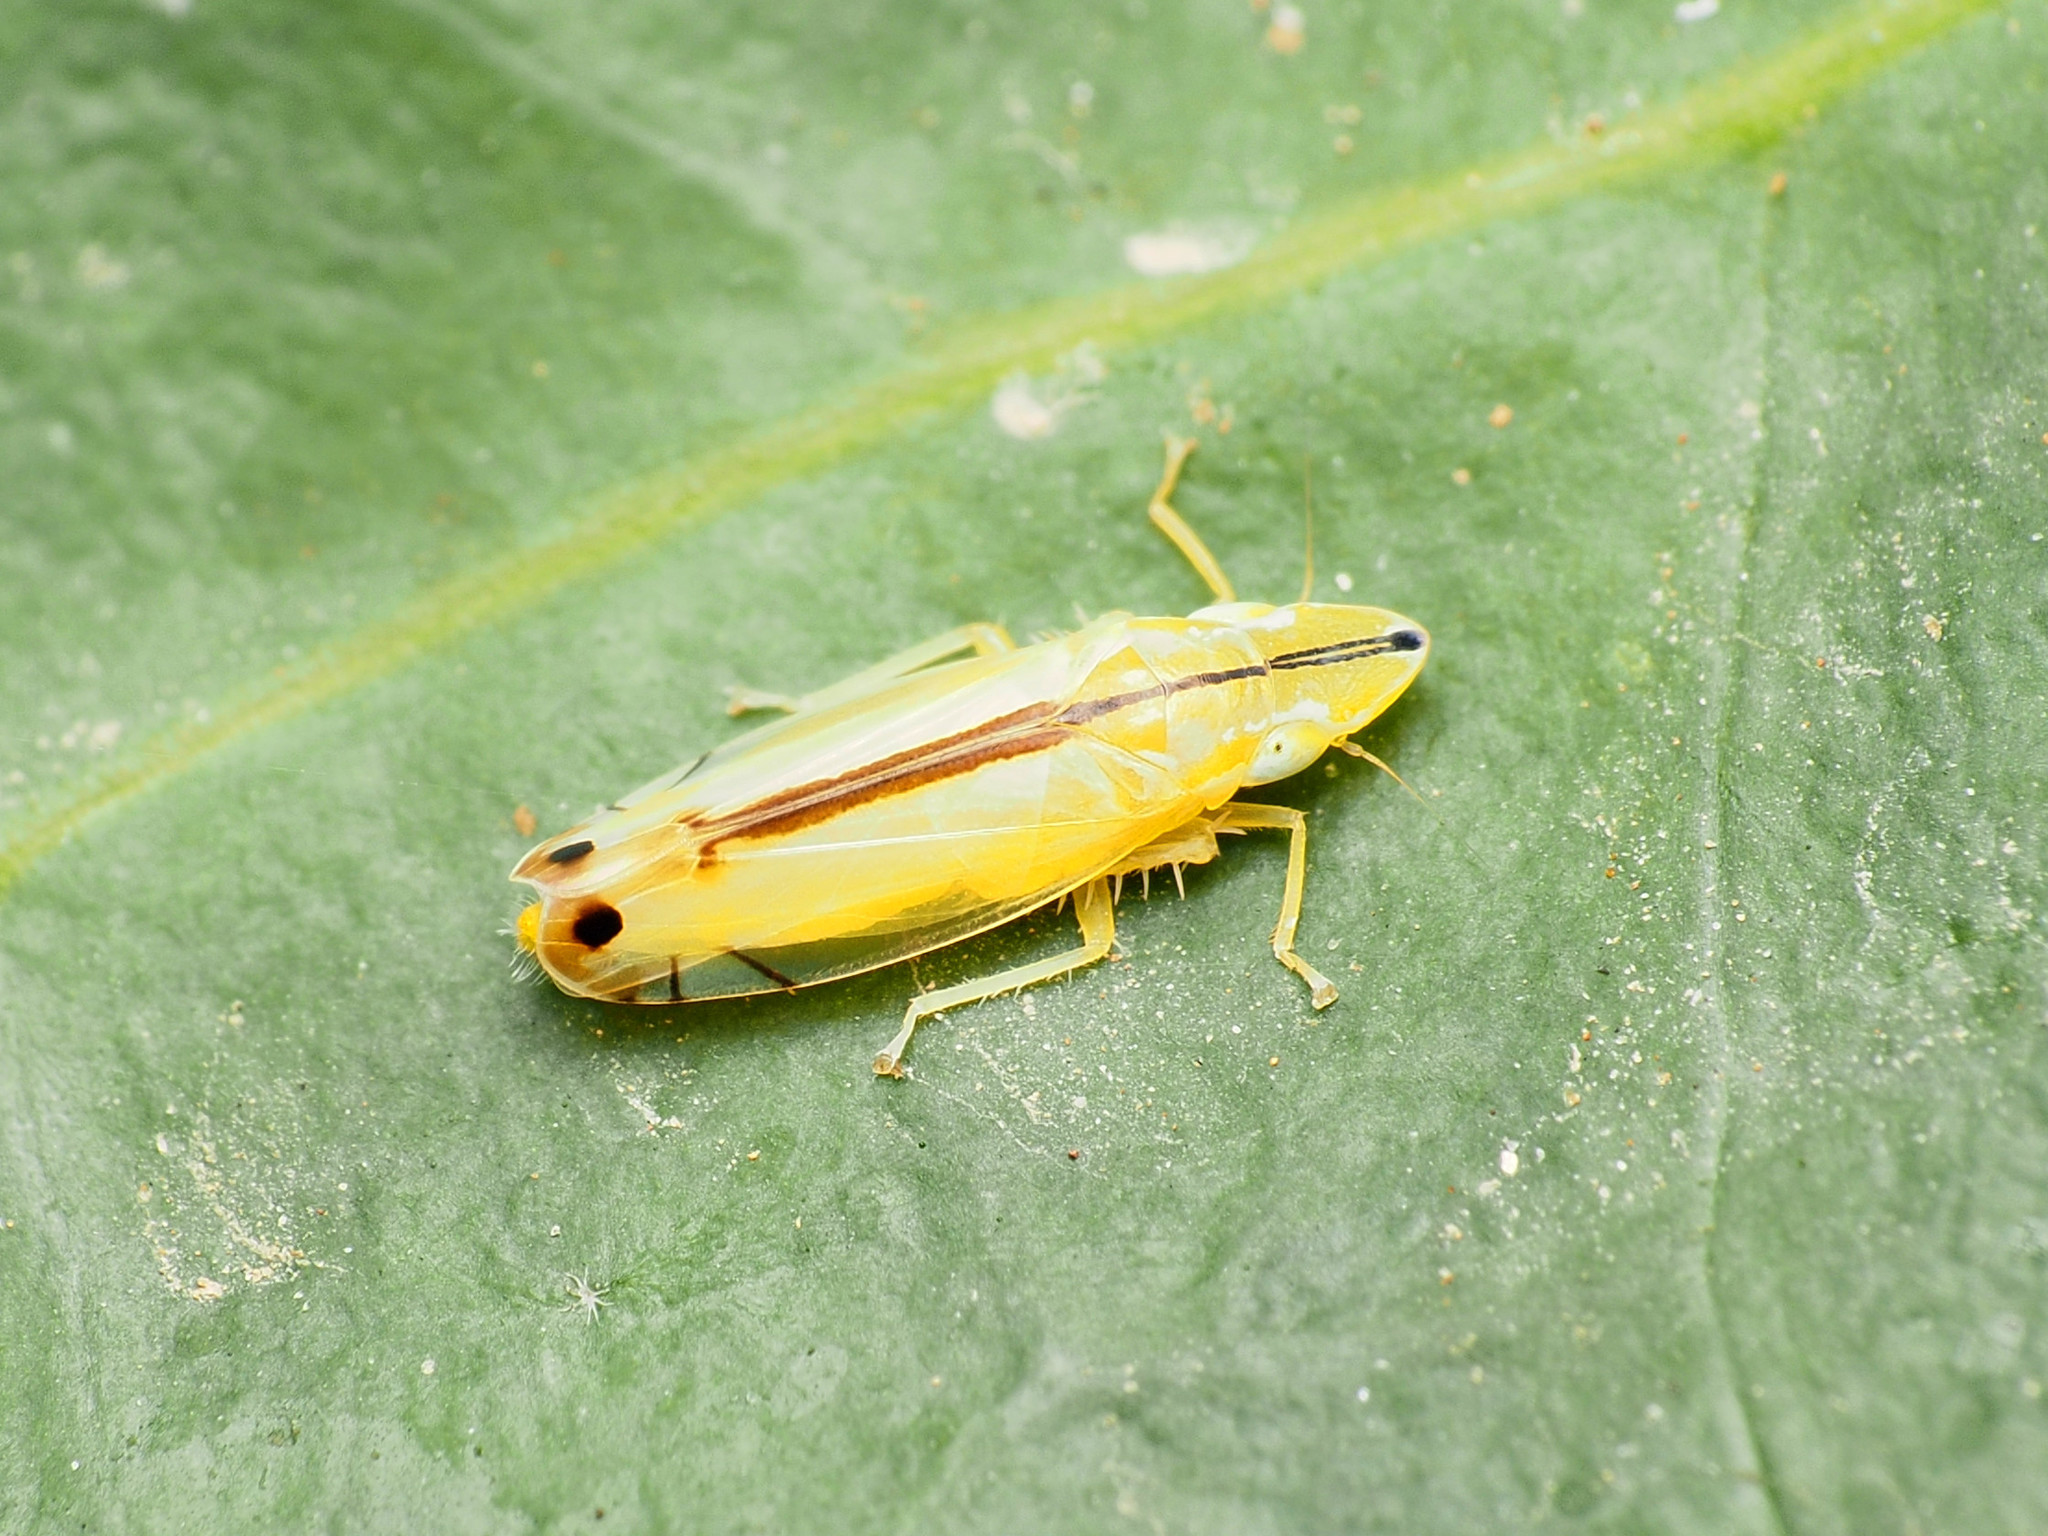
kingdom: Animalia
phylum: Arthropoda
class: Insecta
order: Hemiptera
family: Cicadellidae
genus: Sophonia
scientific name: Sophonia orientalis
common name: Two-spotted leafhopper
